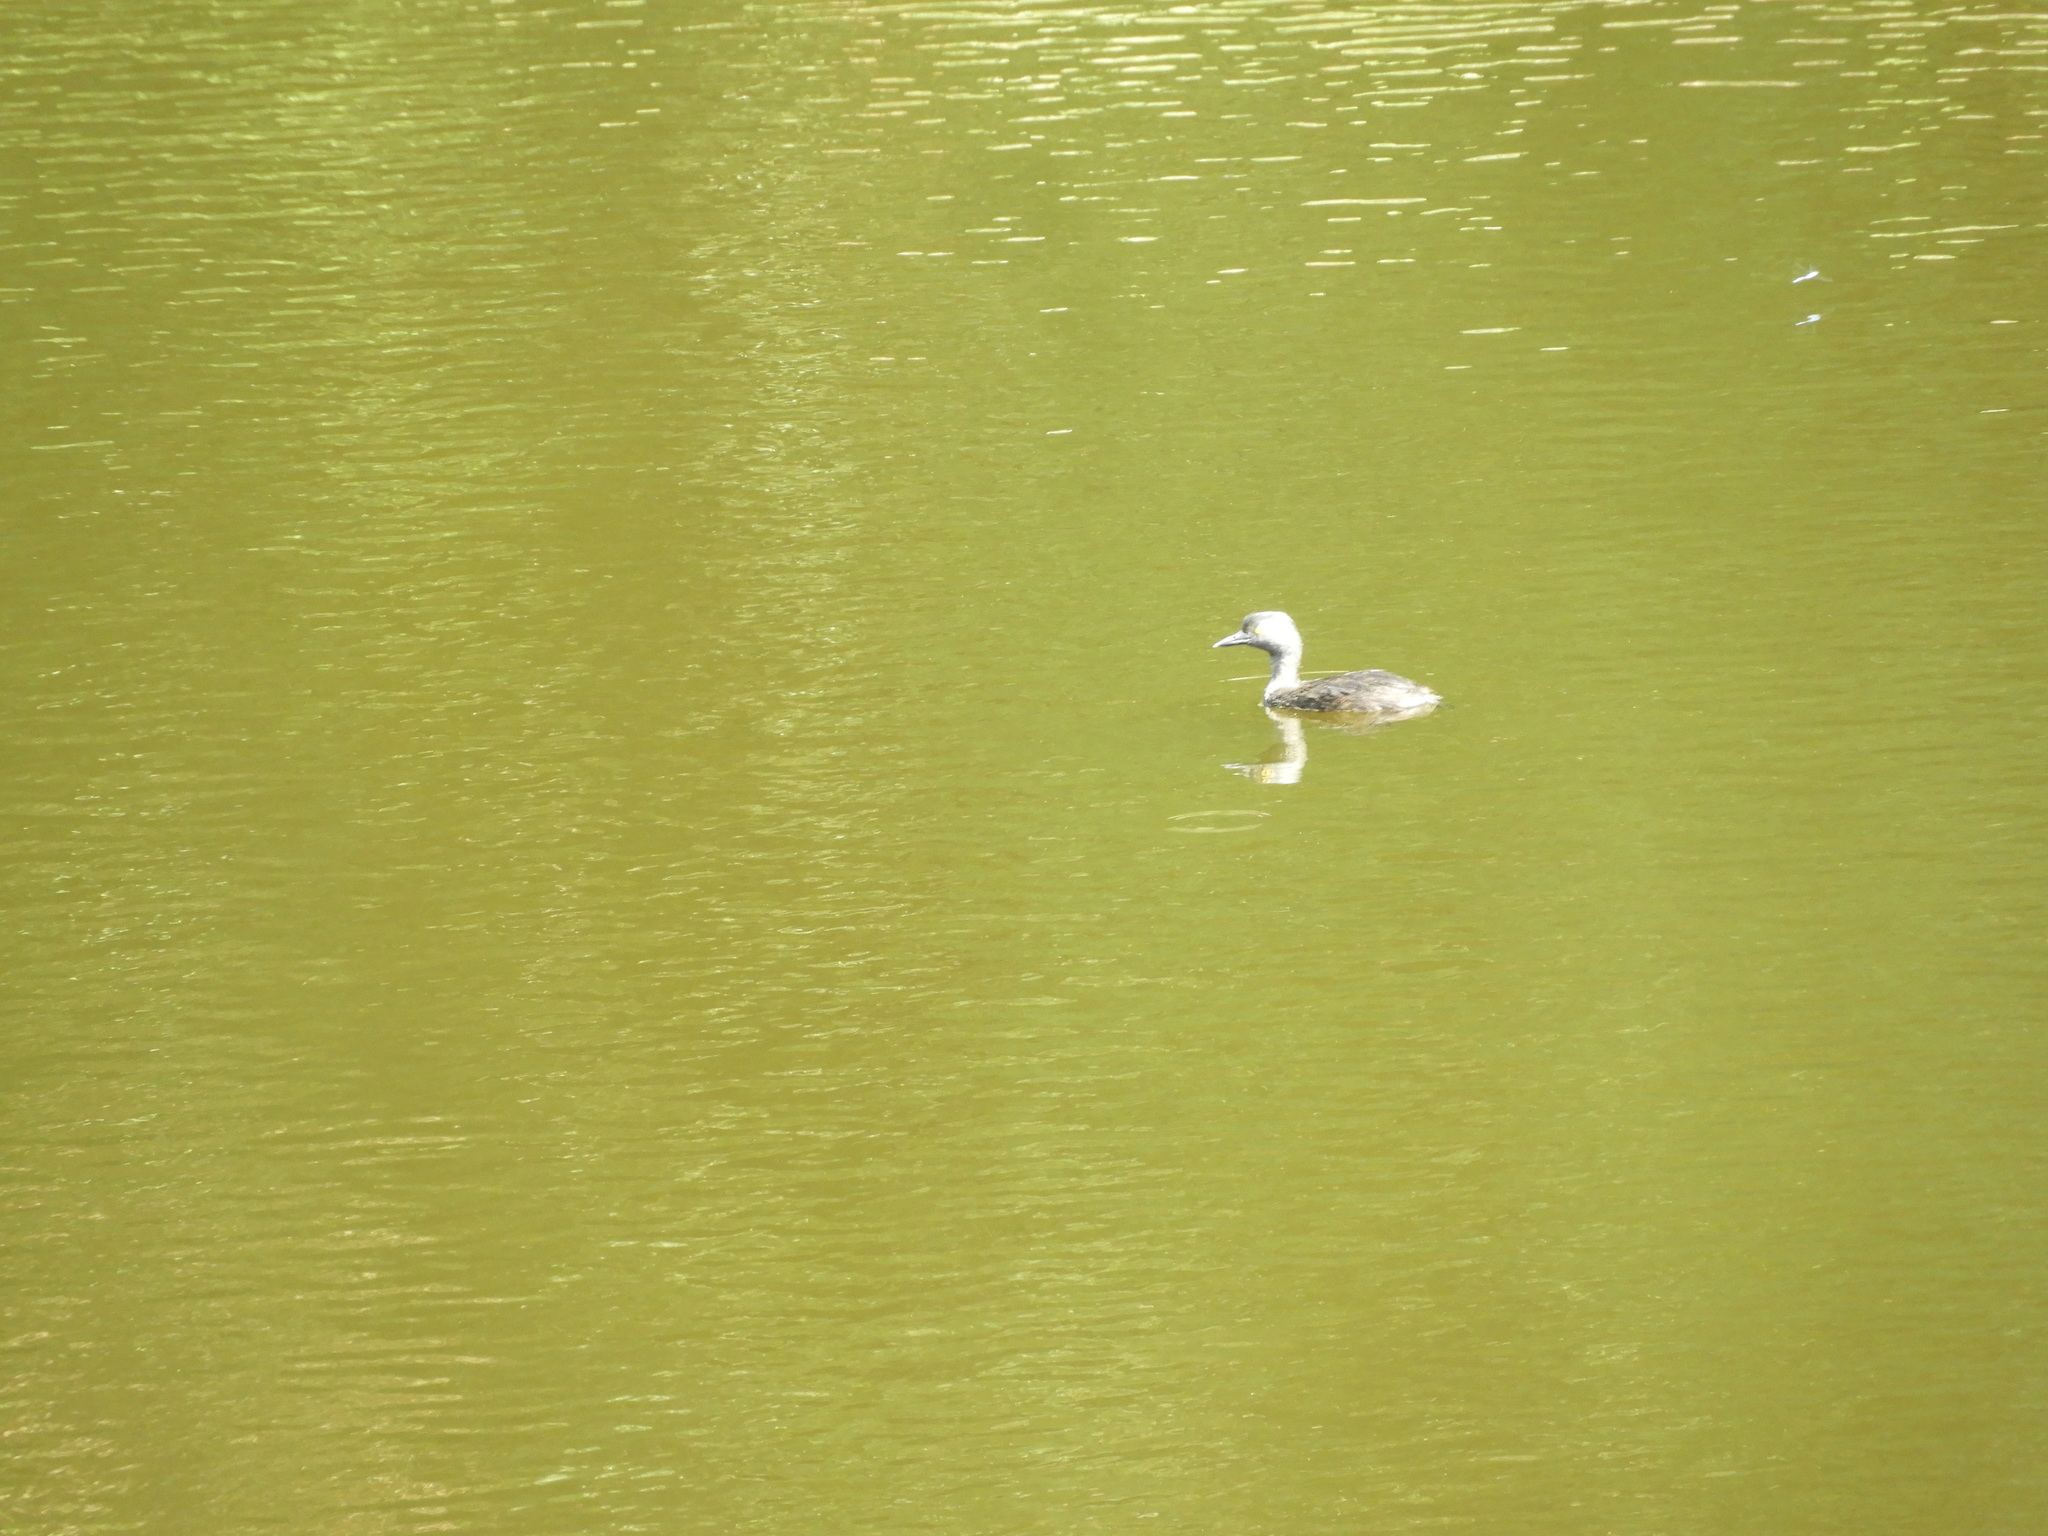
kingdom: Animalia
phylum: Chordata
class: Aves
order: Podicipediformes
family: Podicipedidae
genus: Tachybaptus
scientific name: Tachybaptus dominicus
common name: Least grebe
